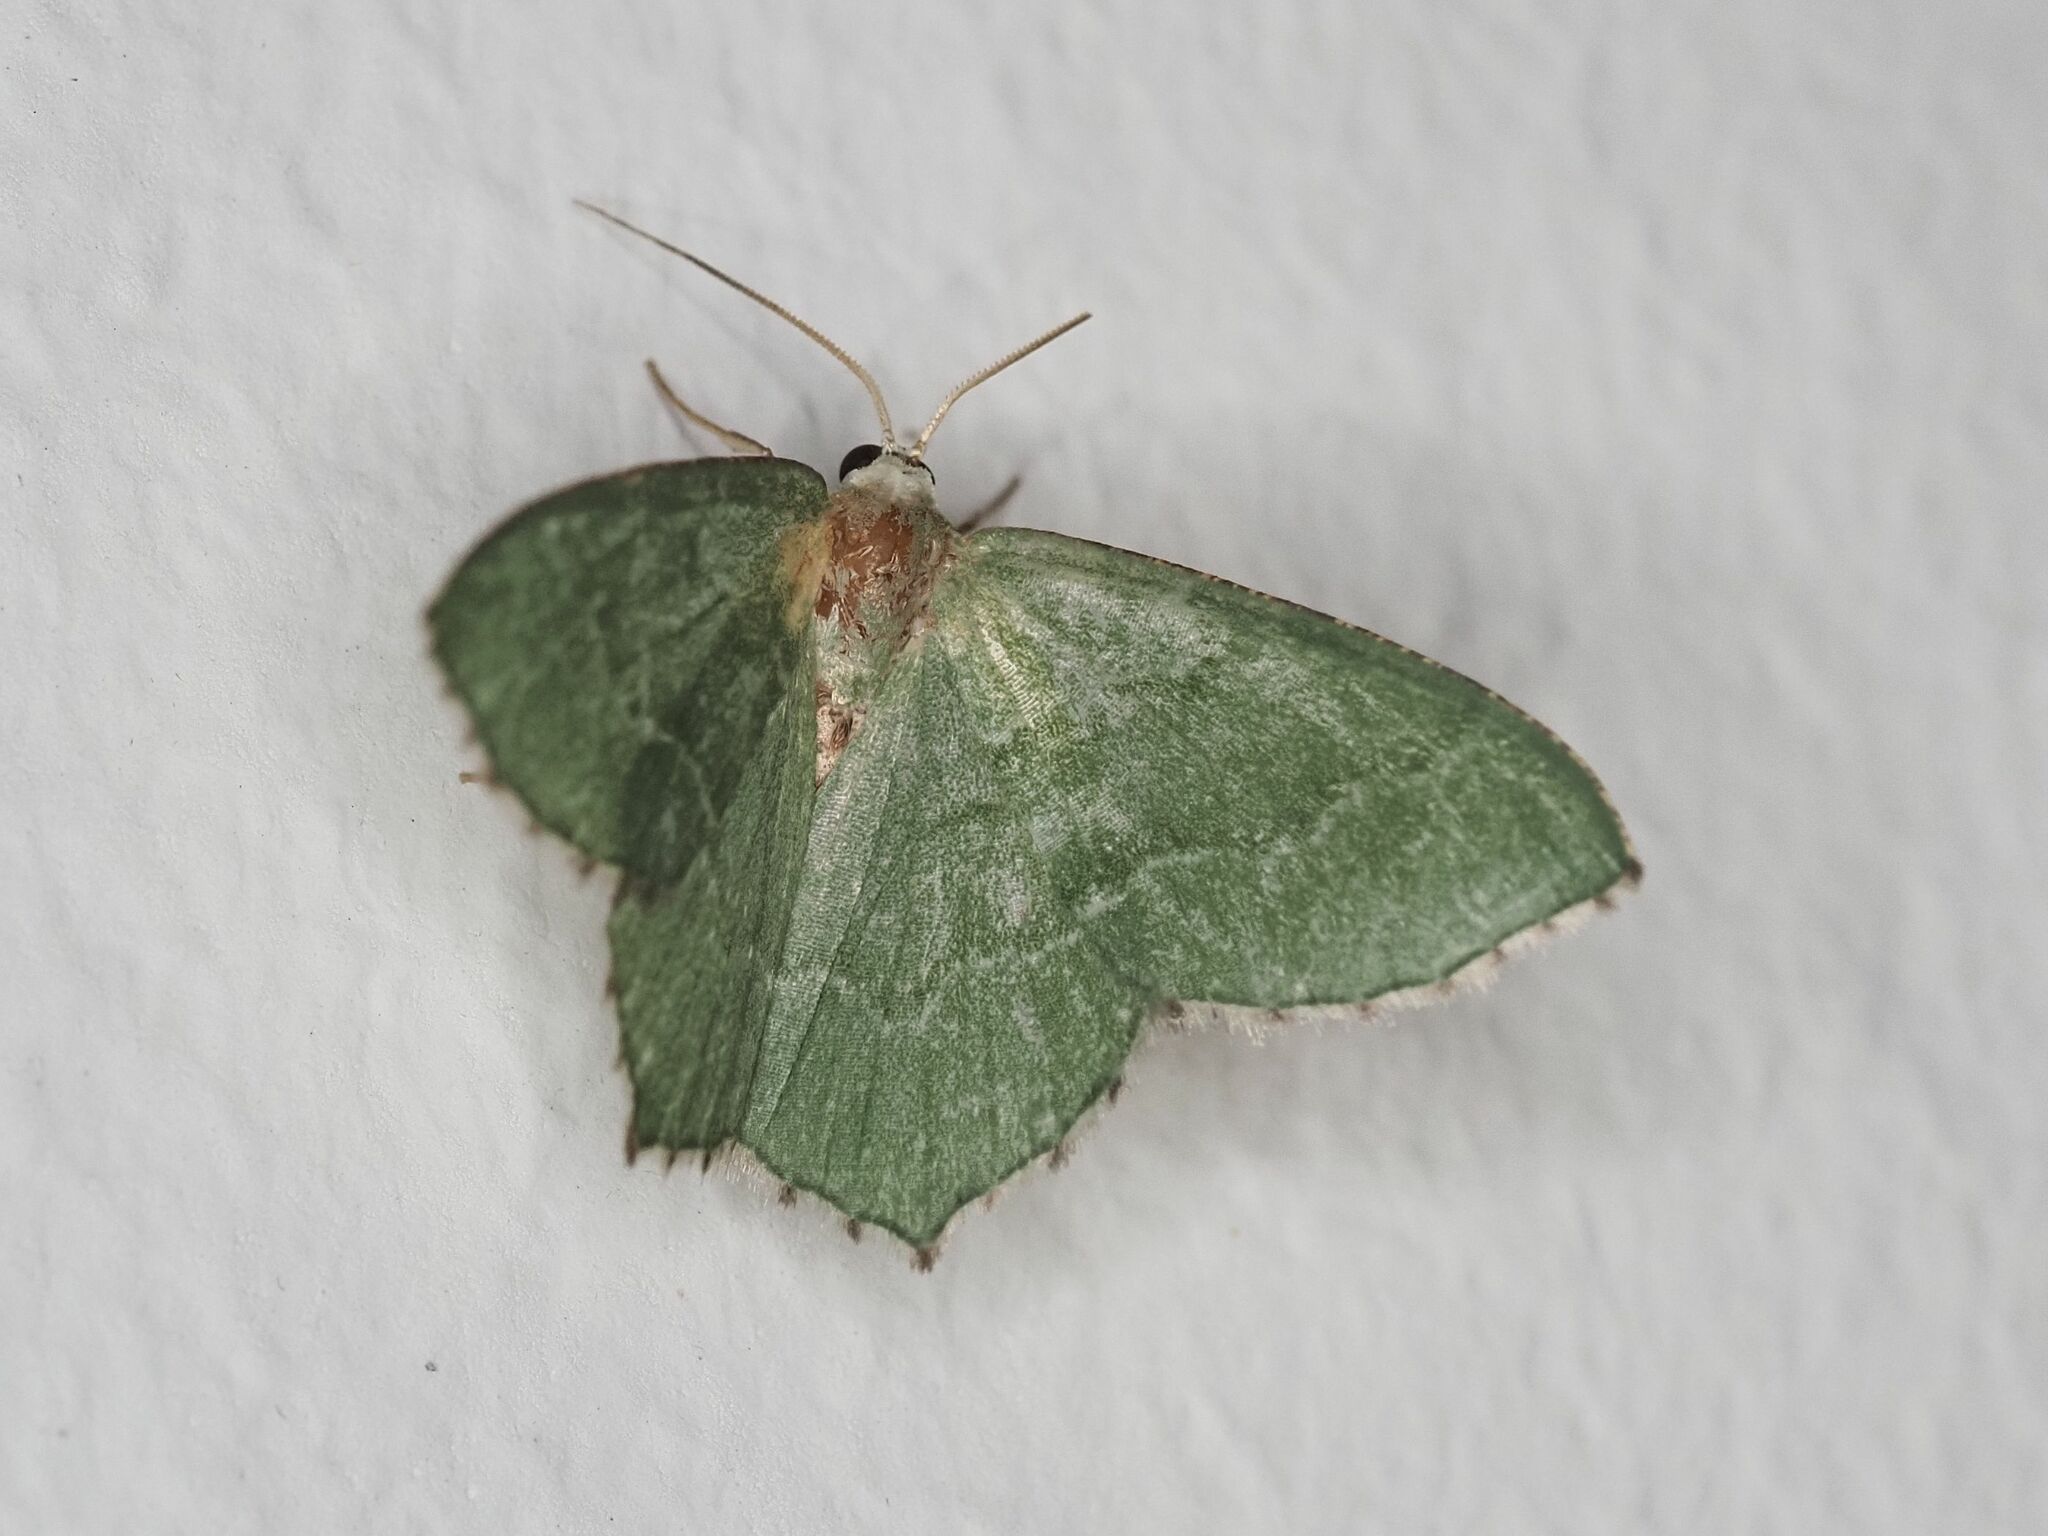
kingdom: Animalia
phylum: Arthropoda
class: Insecta
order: Lepidoptera
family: Geometridae
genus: Hemithea
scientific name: Hemithea aestivaria
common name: Common emerald
